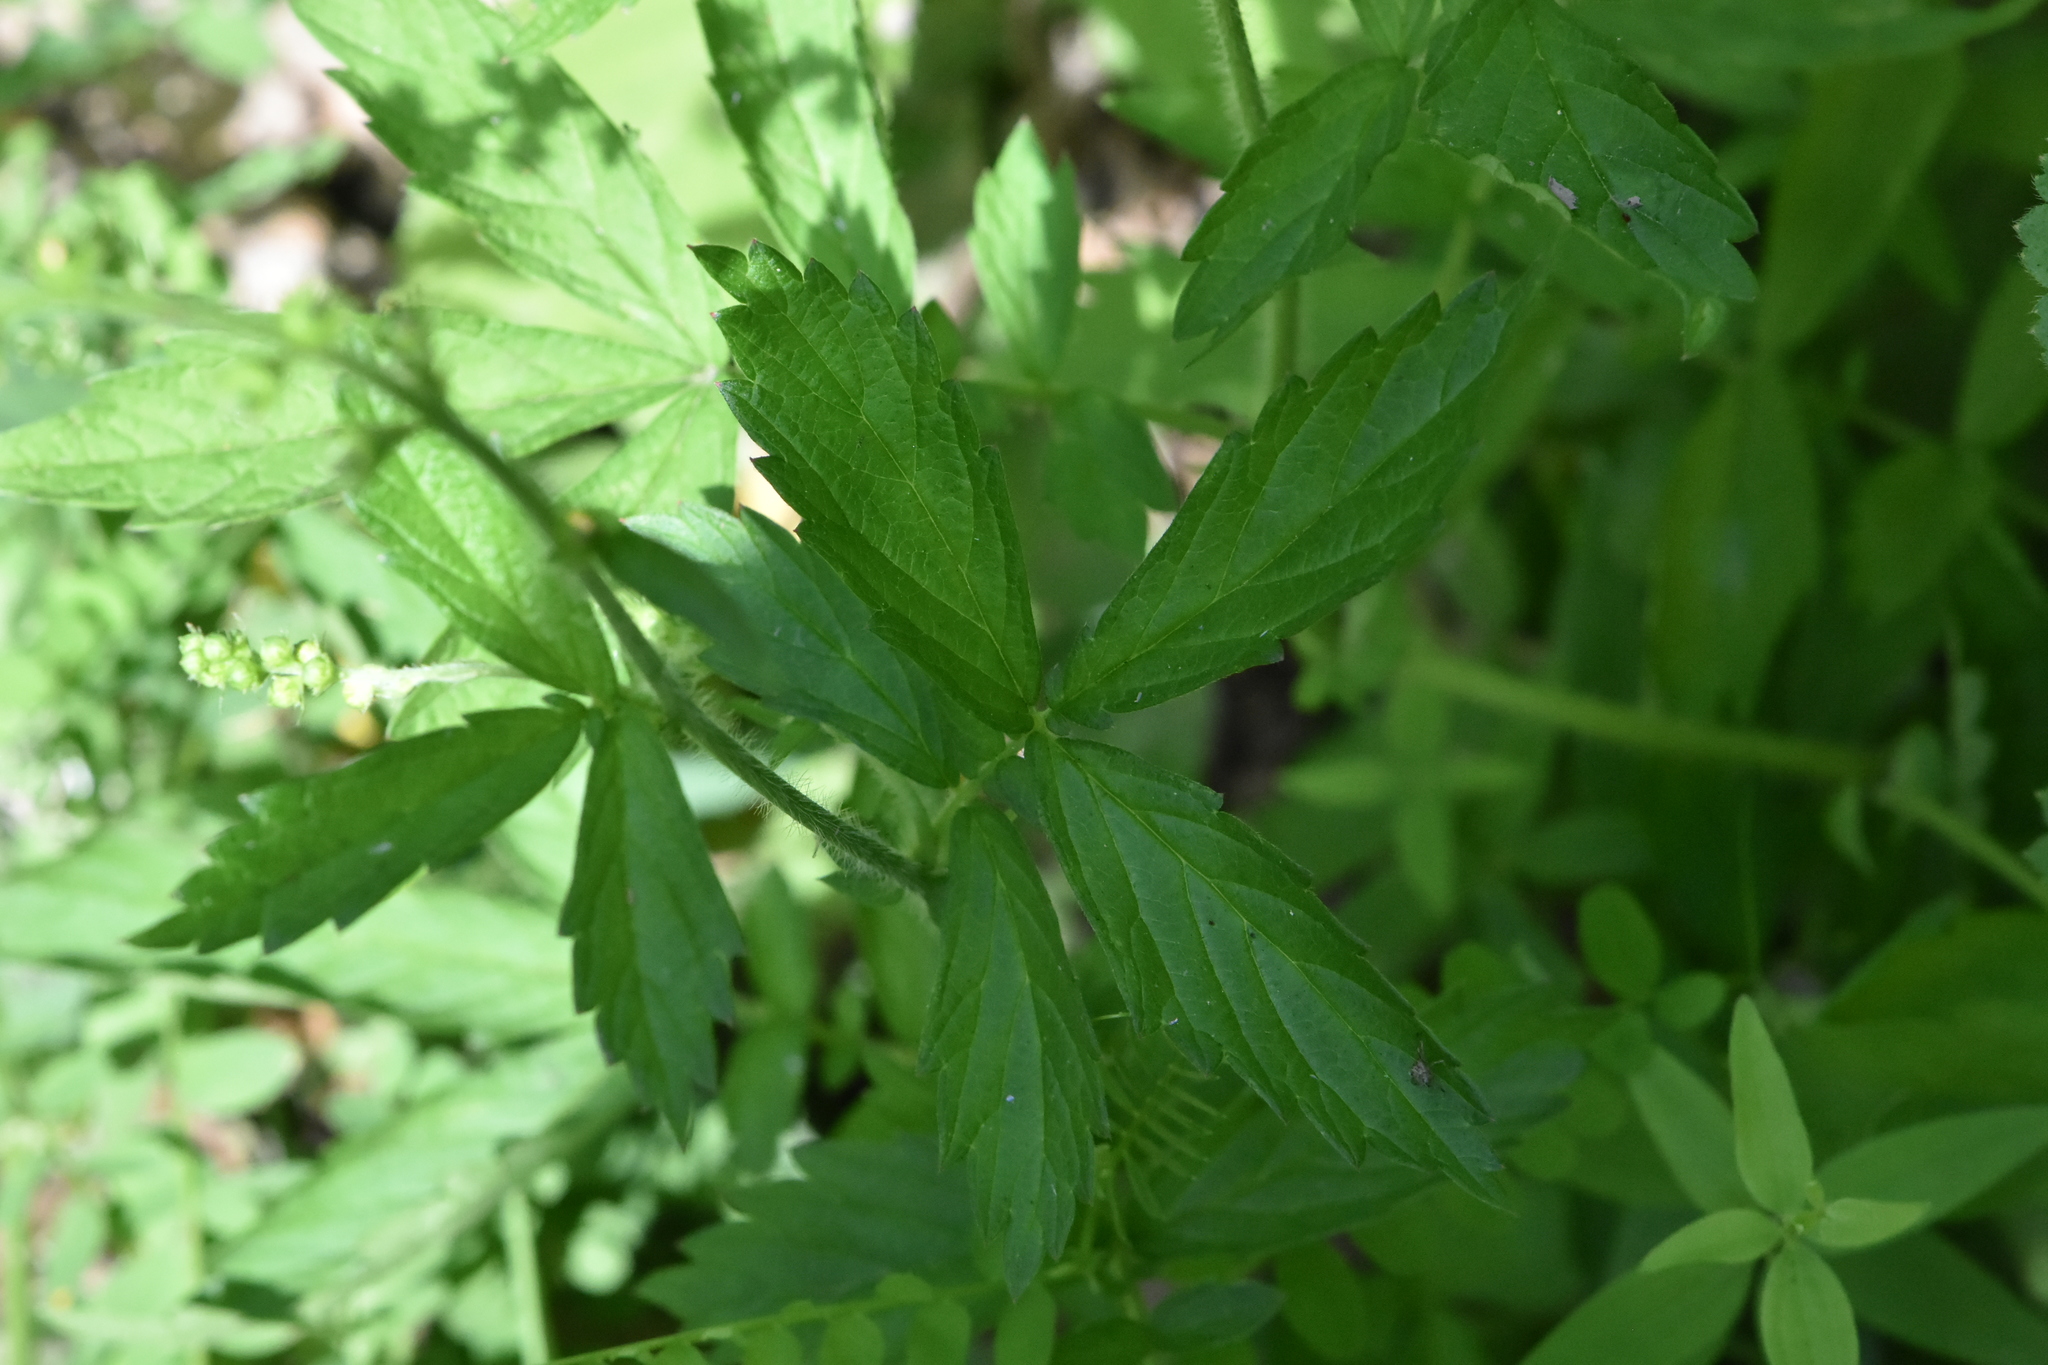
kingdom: Plantae
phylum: Tracheophyta
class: Magnoliopsida
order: Rosales
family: Rosaceae
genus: Agrimonia
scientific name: Agrimonia pilosa
